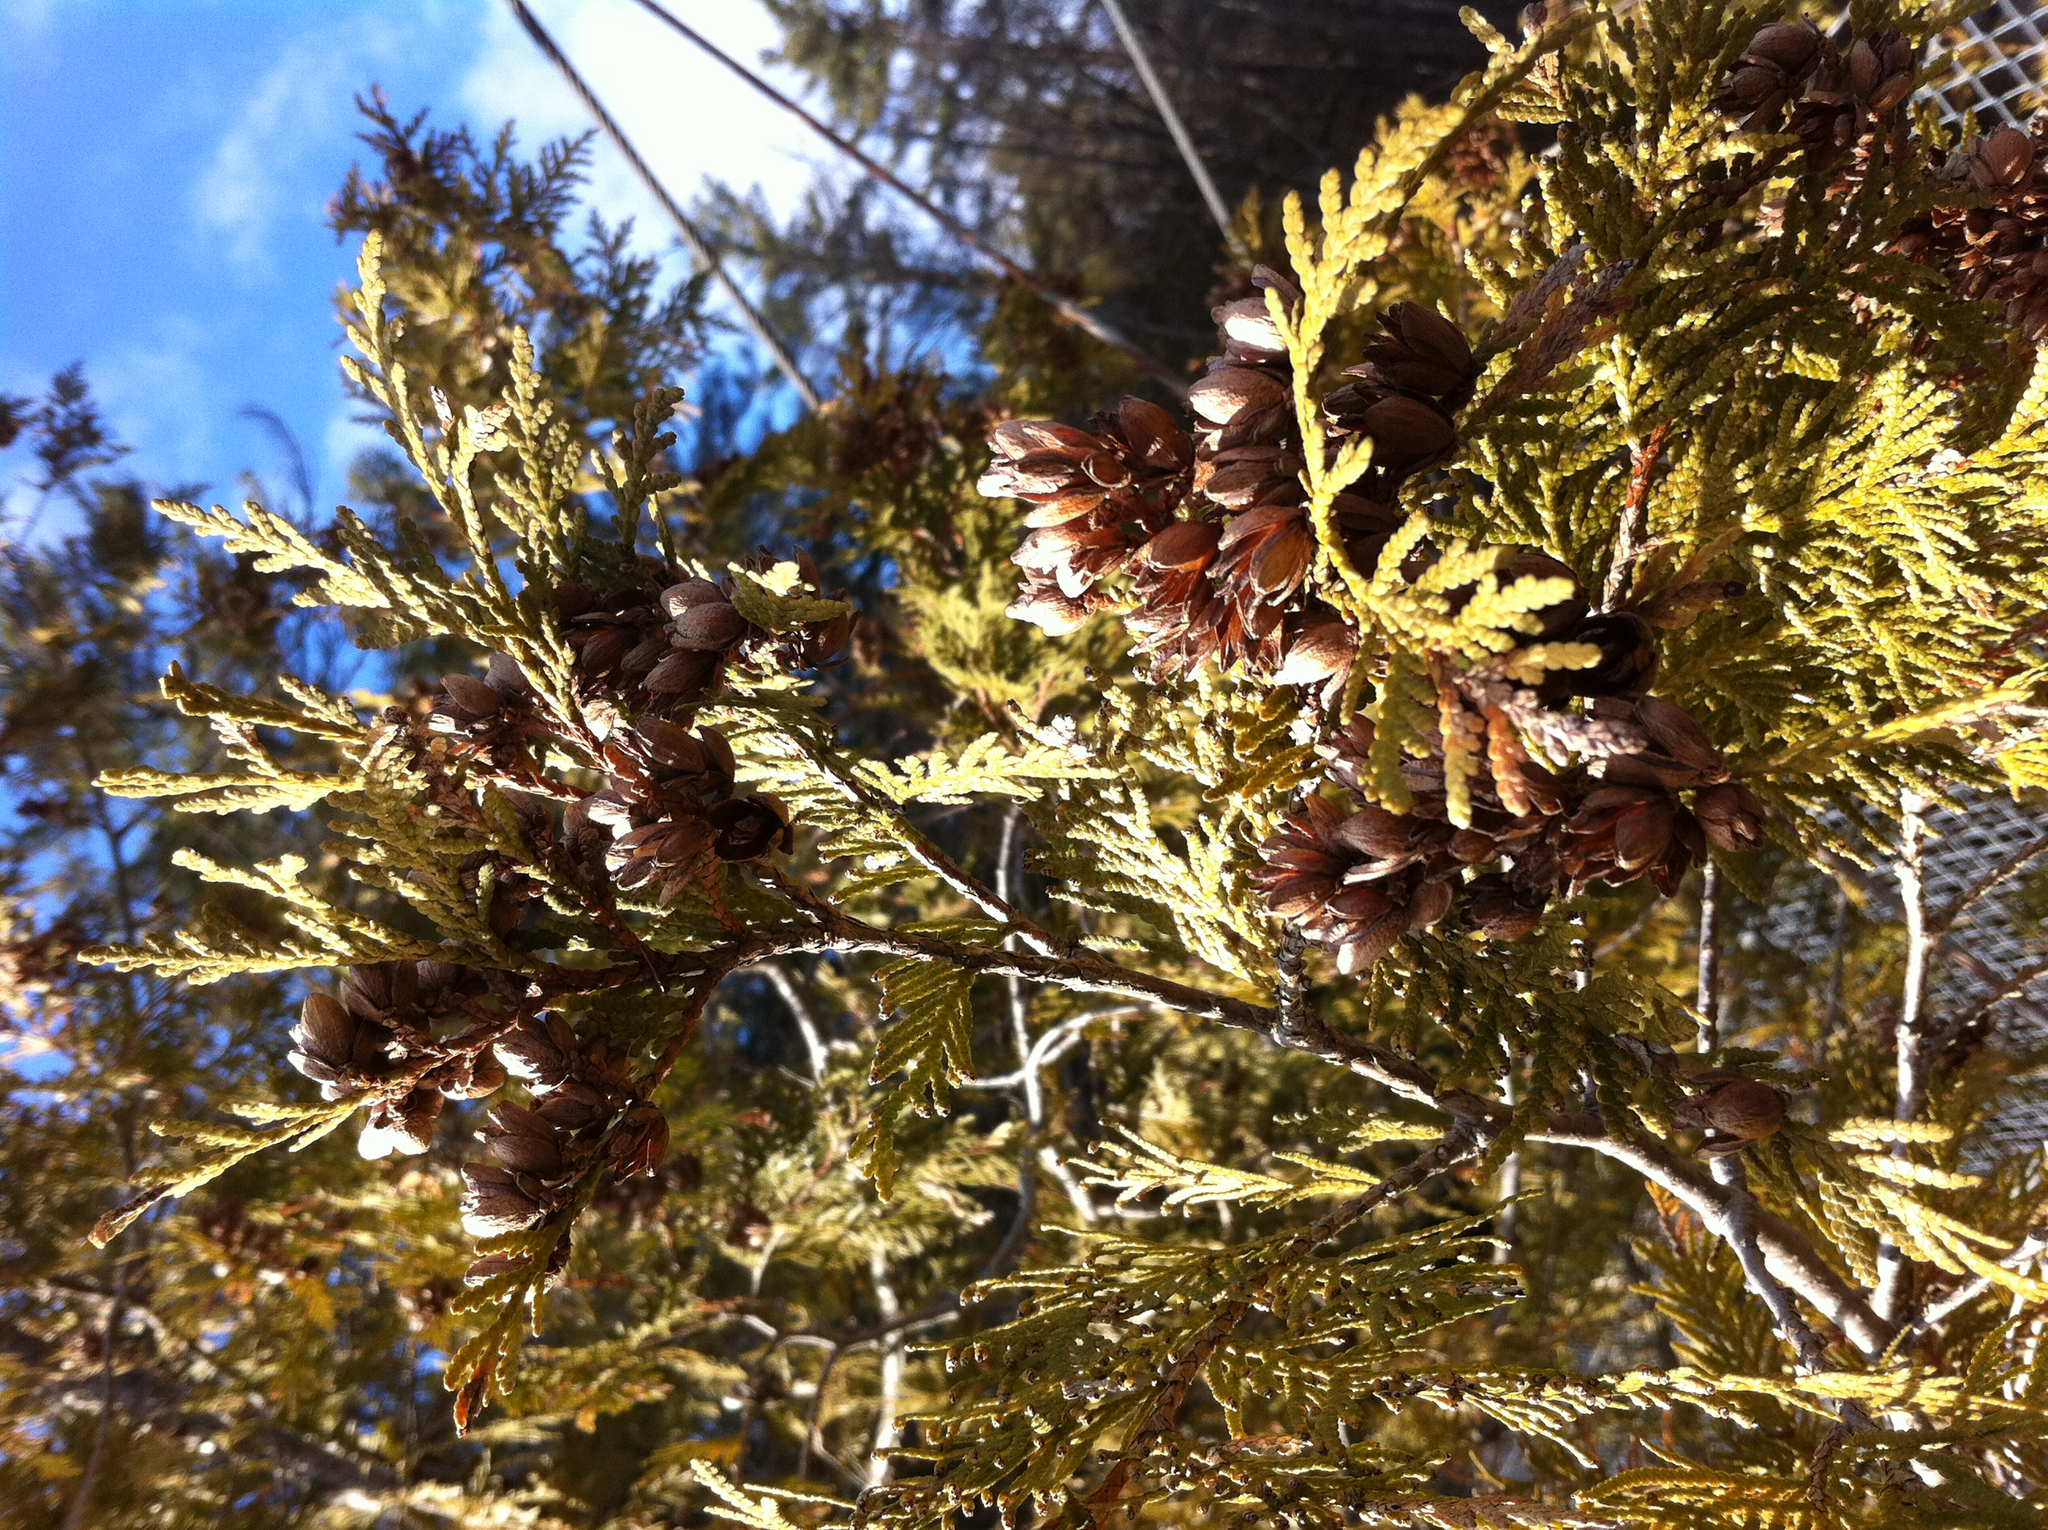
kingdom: Plantae
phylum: Tracheophyta
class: Pinopsida
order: Pinales
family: Cupressaceae
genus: Thuja
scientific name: Thuja occidentalis
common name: Northern white-cedar
